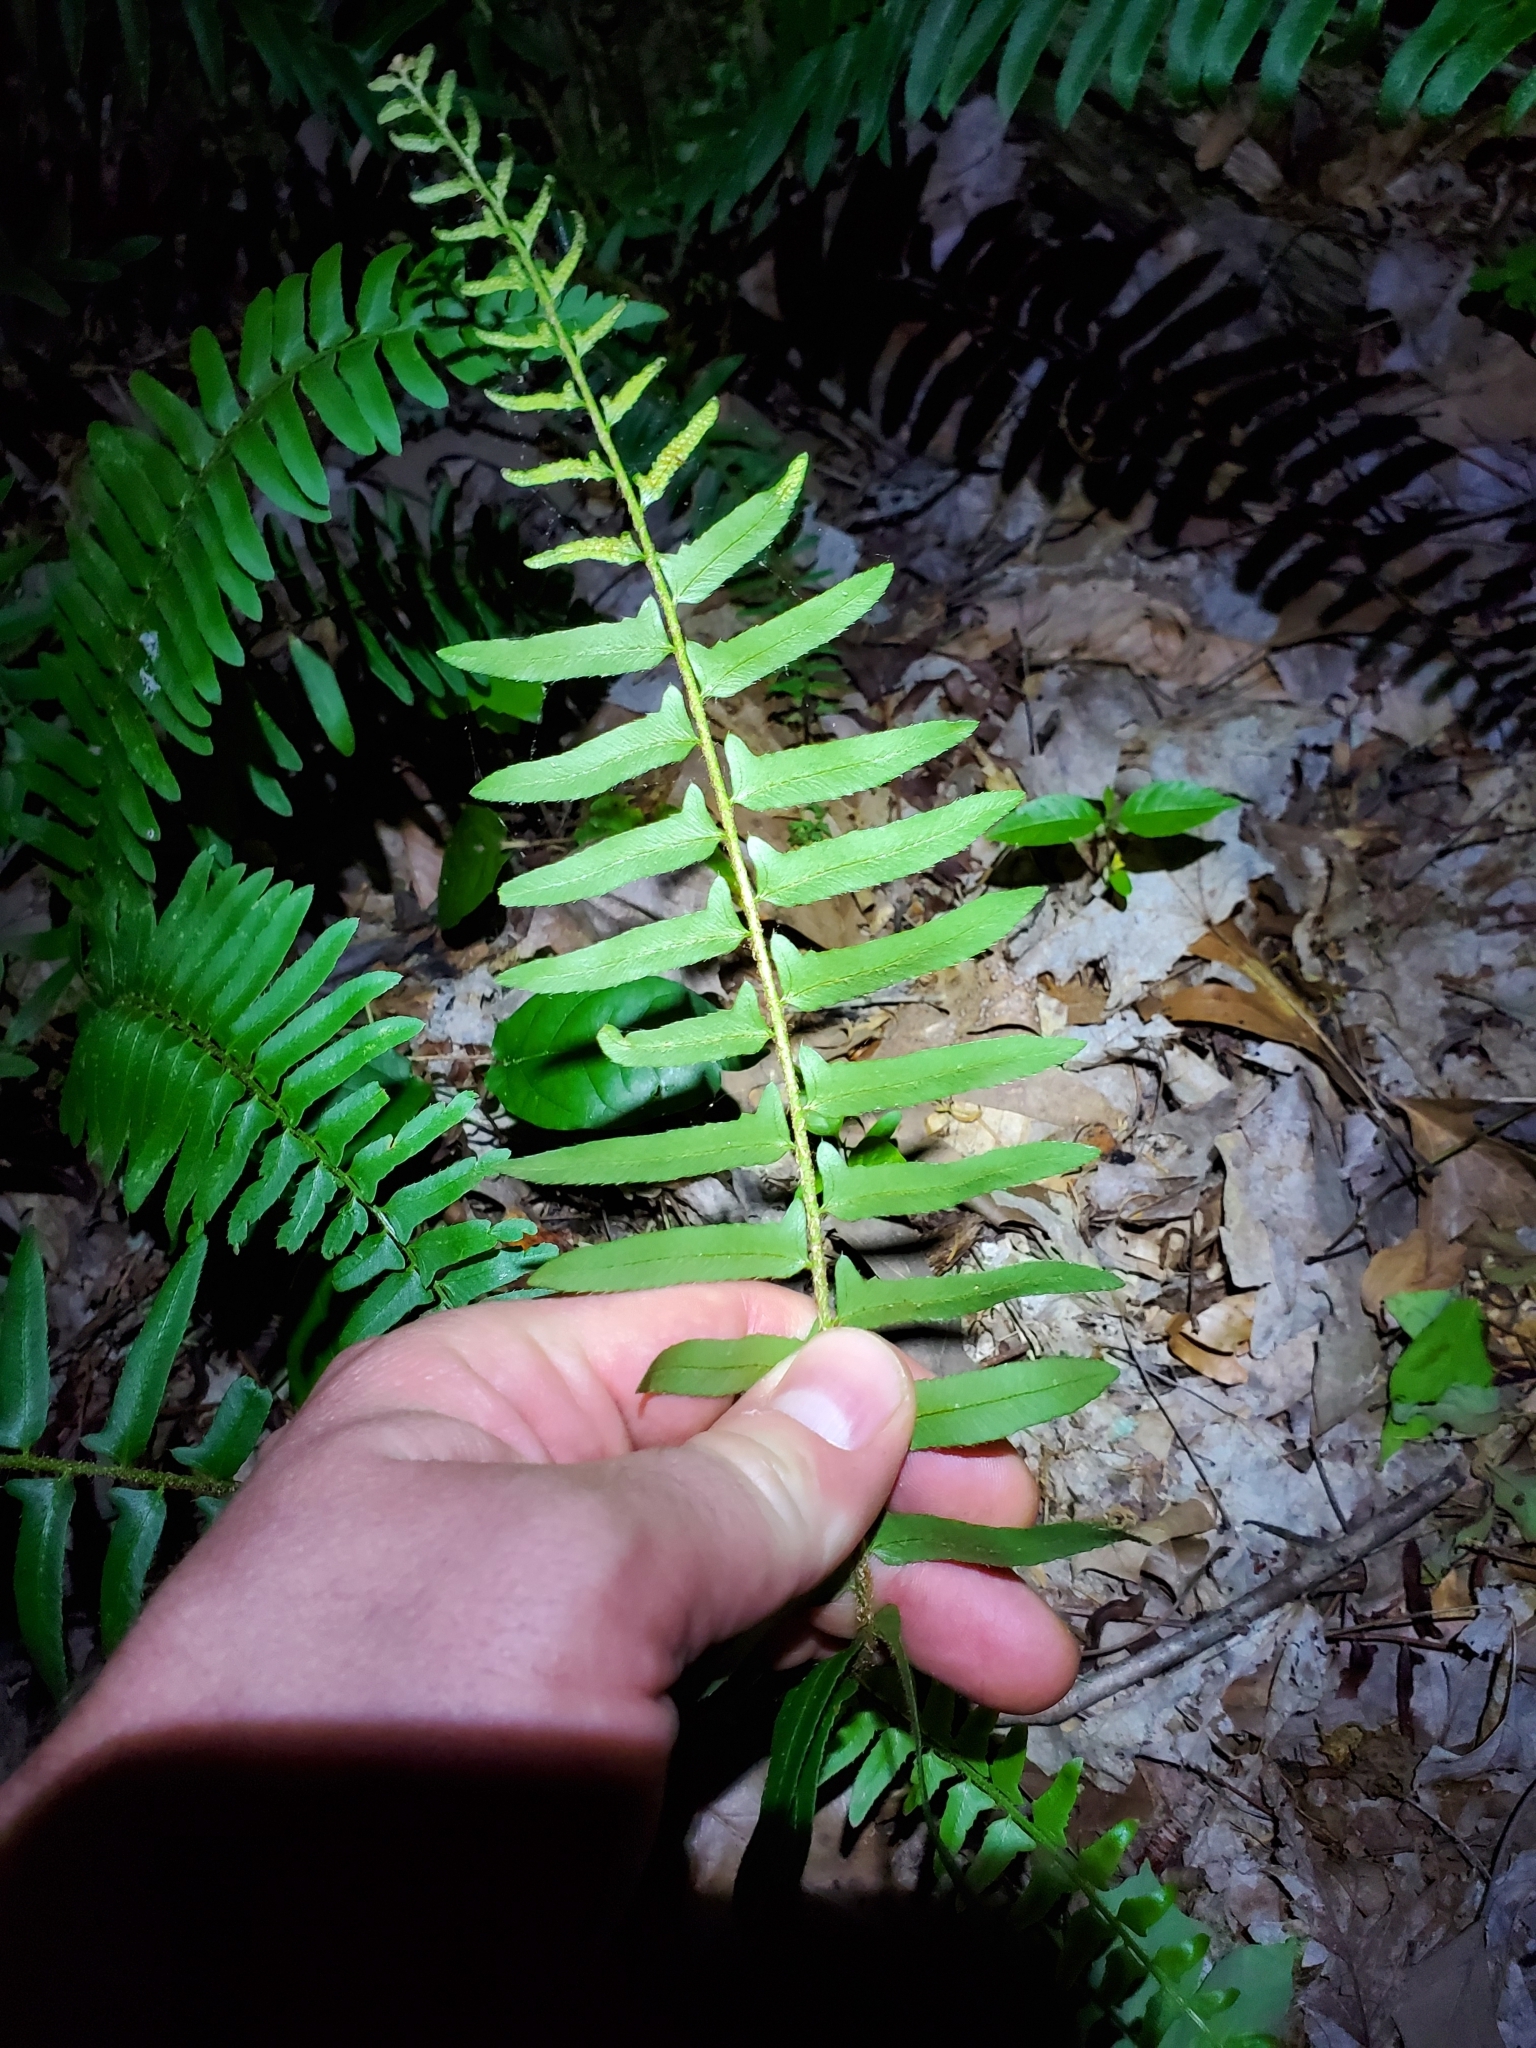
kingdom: Plantae
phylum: Tracheophyta
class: Polypodiopsida
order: Polypodiales
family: Dryopteridaceae
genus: Polystichum
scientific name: Polystichum acrostichoides
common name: Christmas fern
